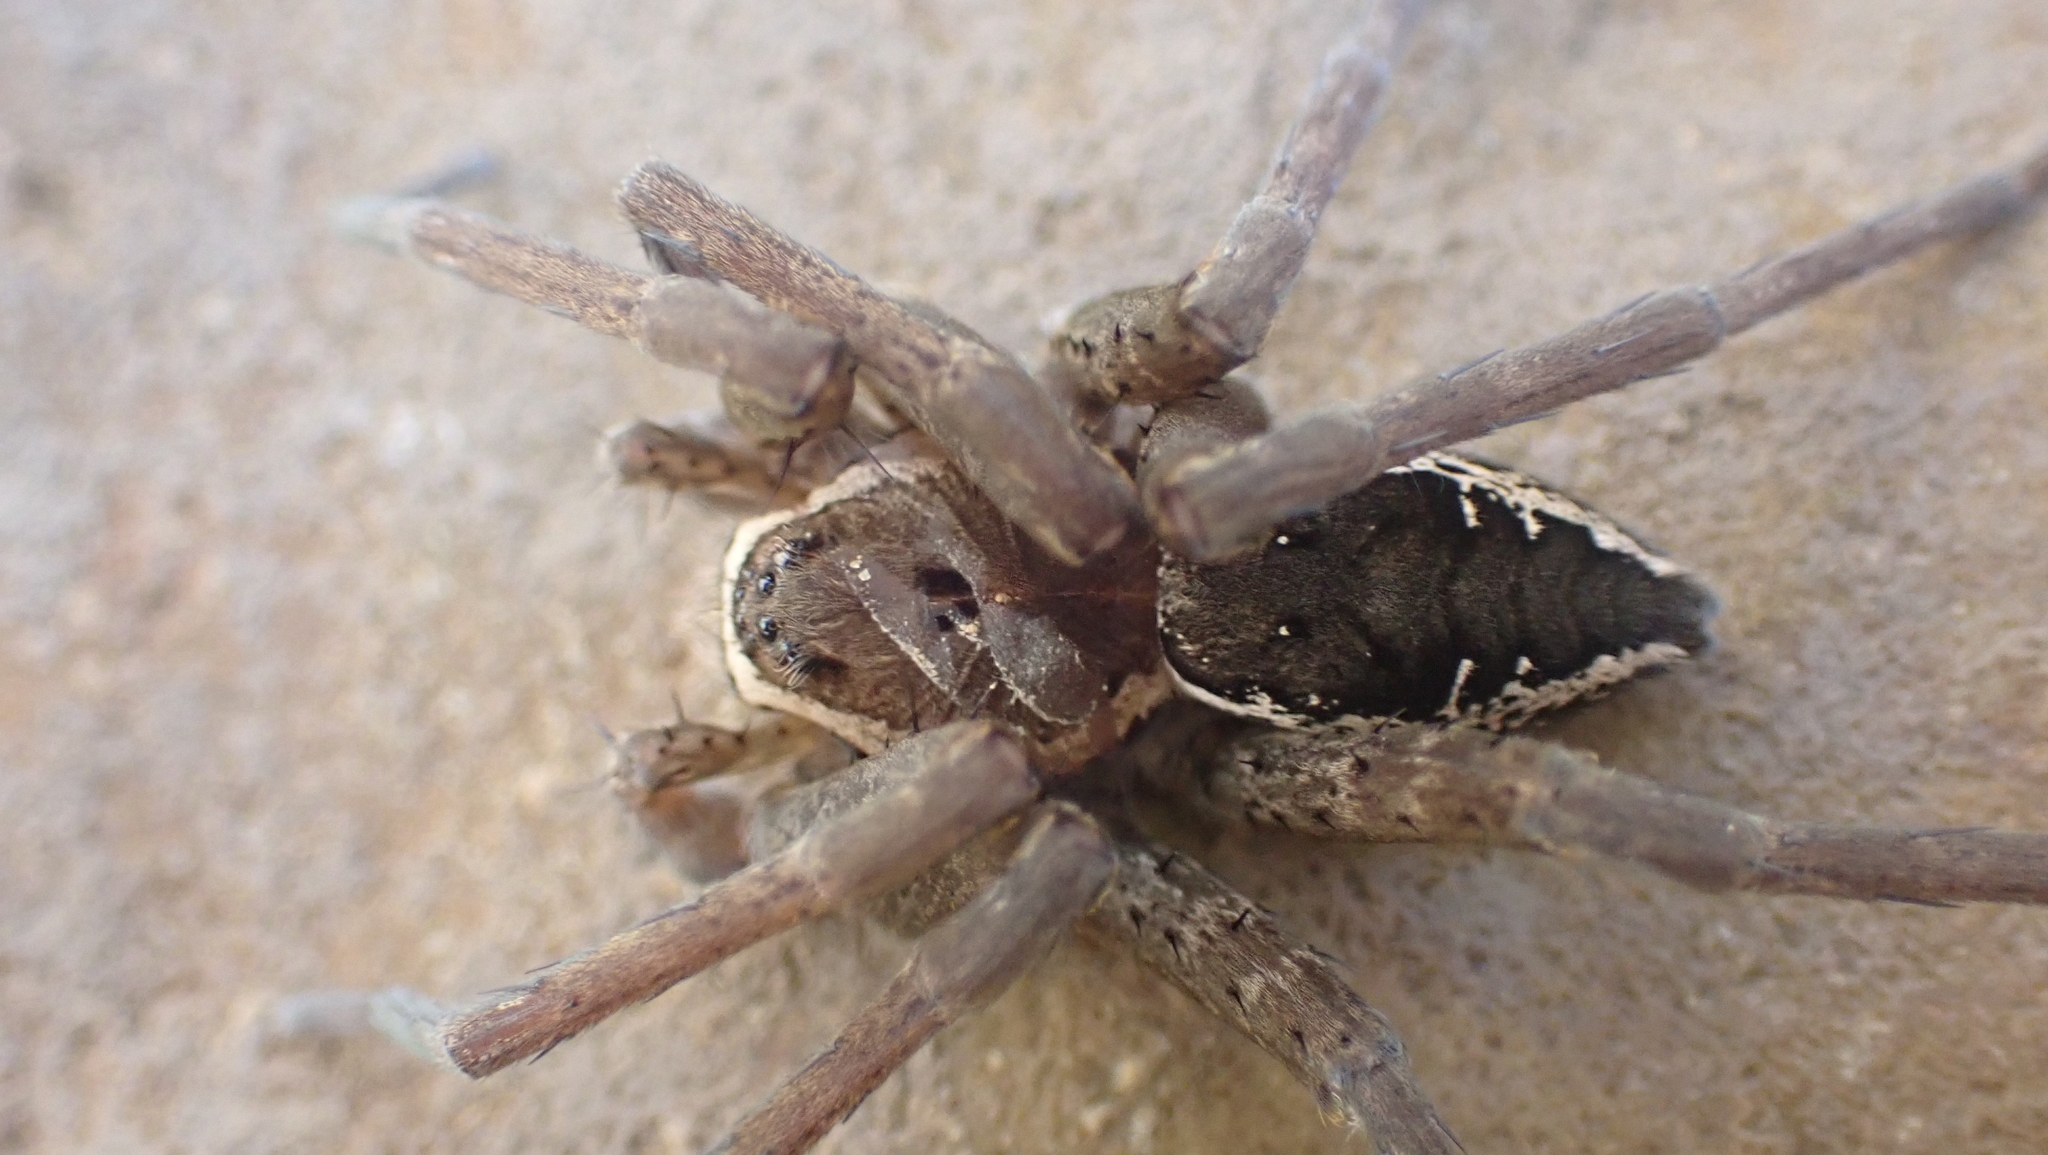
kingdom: Animalia
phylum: Arthropoda
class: Arachnida
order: Araneae
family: Pisauridae
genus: Dolomedes
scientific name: Dolomedes vittatus
